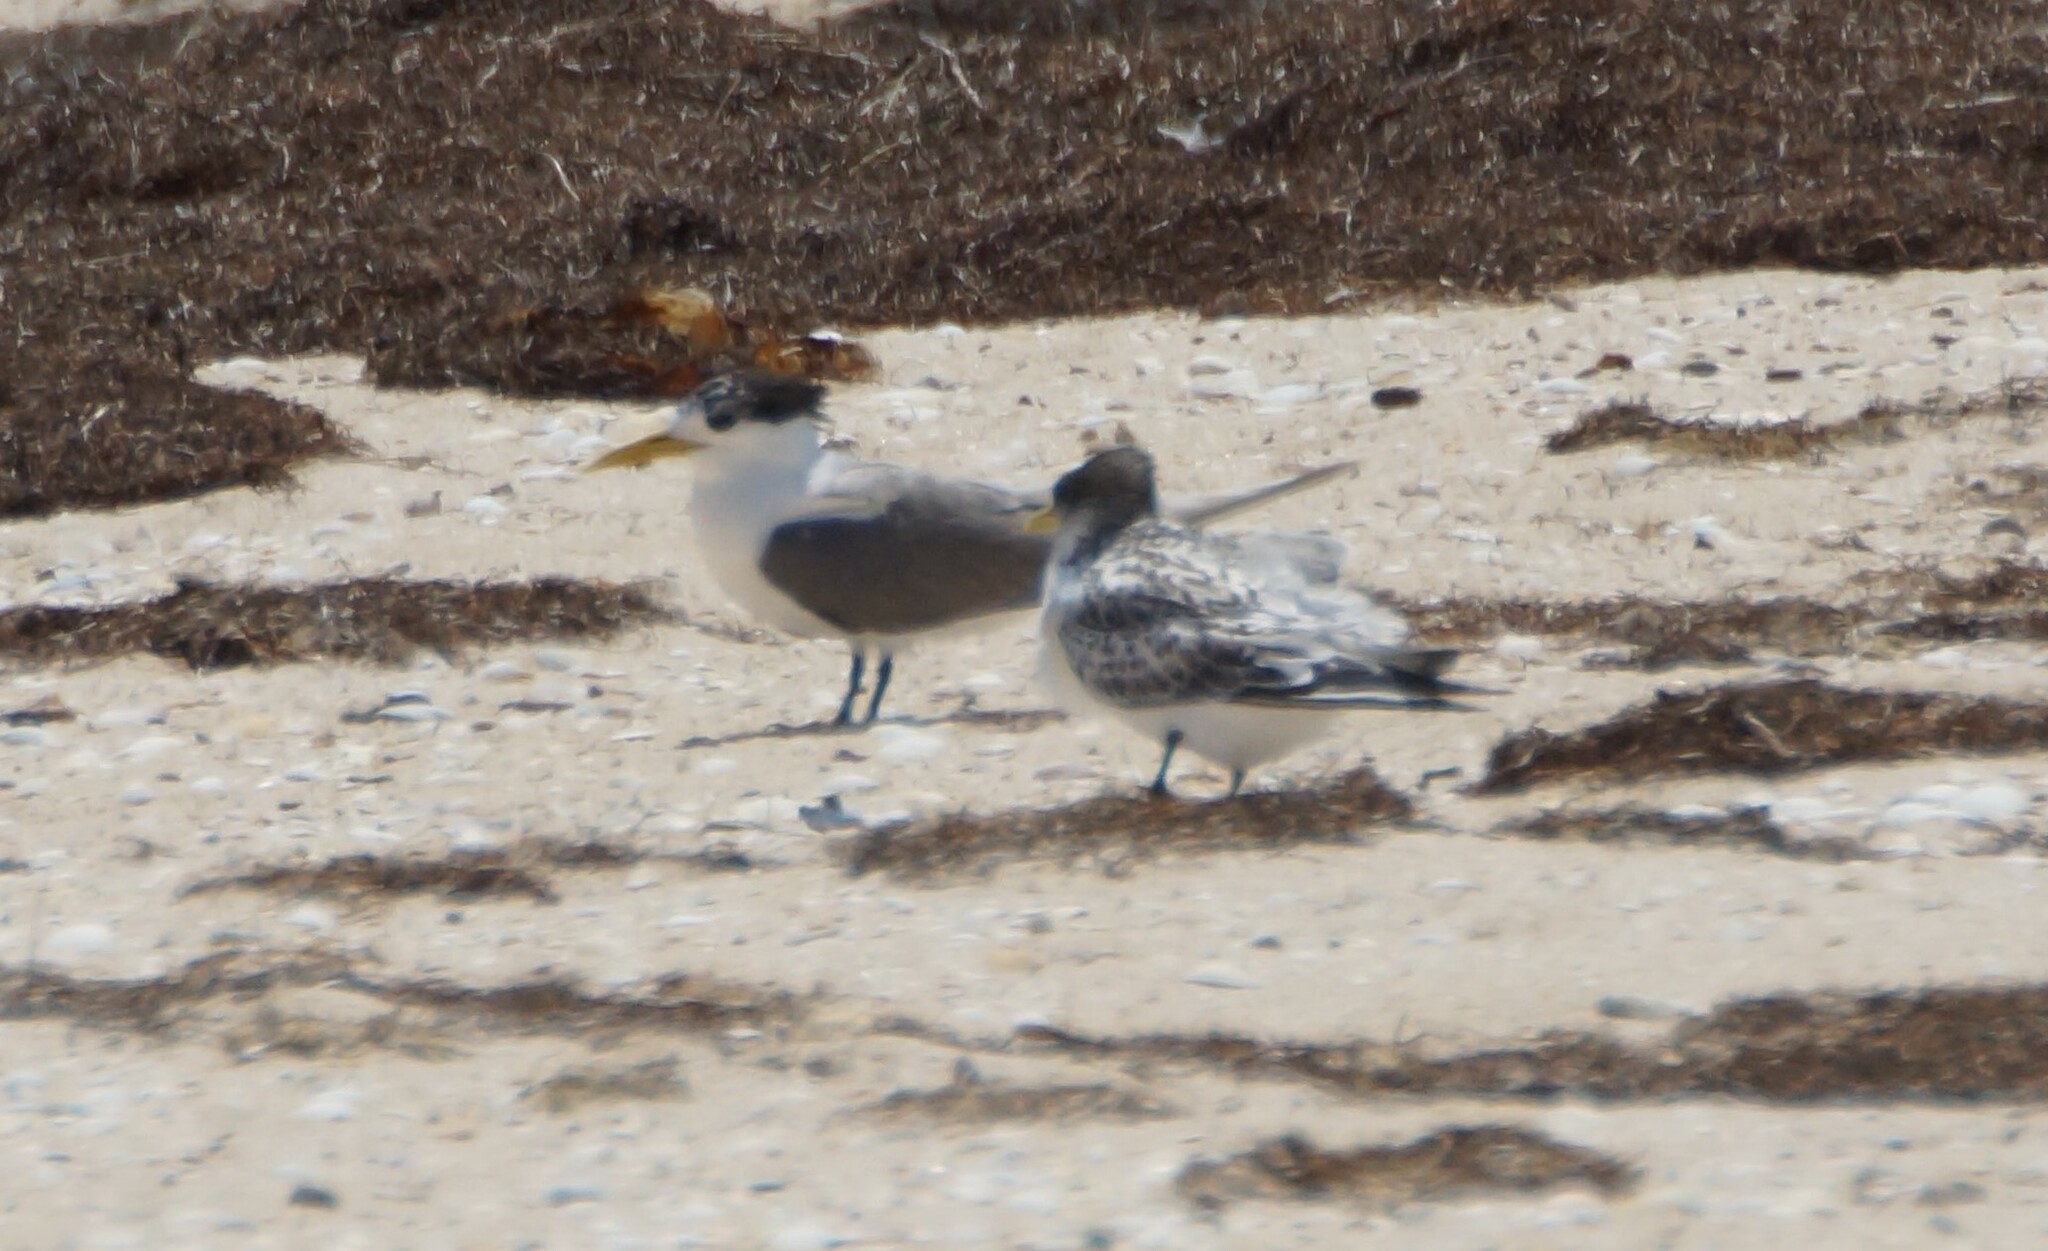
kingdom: Animalia
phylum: Chordata
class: Aves
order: Charadriiformes
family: Laridae
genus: Thalasseus
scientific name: Thalasseus bergii
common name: Greater crested tern
